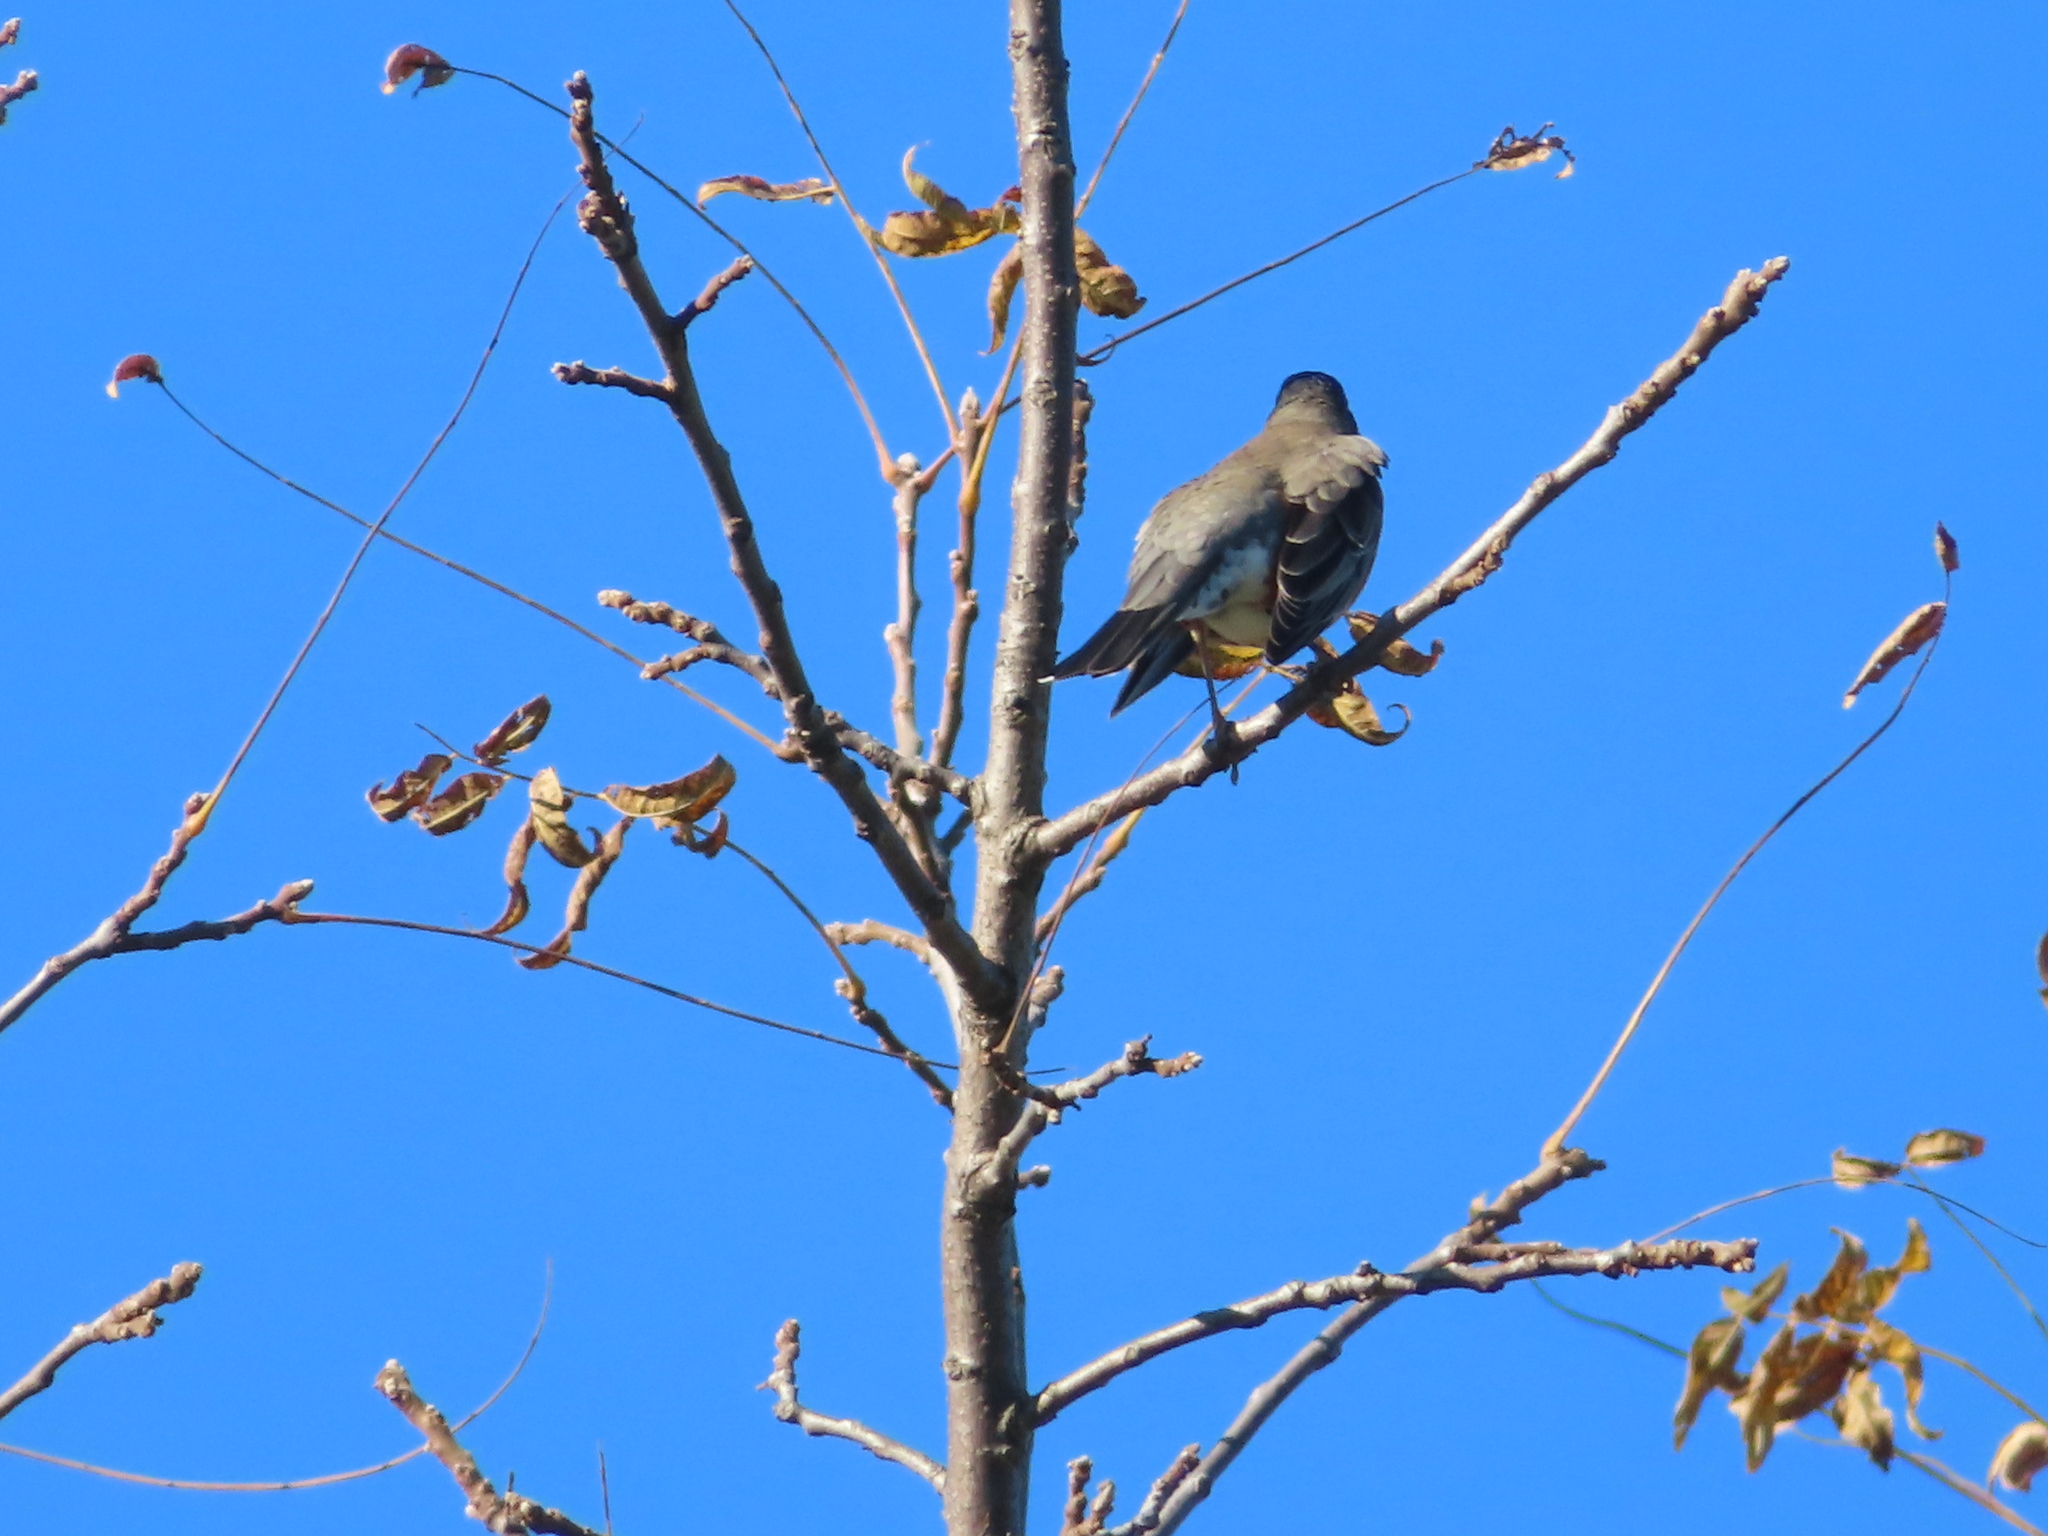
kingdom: Animalia
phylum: Chordata
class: Aves
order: Passeriformes
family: Turdidae
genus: Turdus
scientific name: Turdus migratorius
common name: American robin
